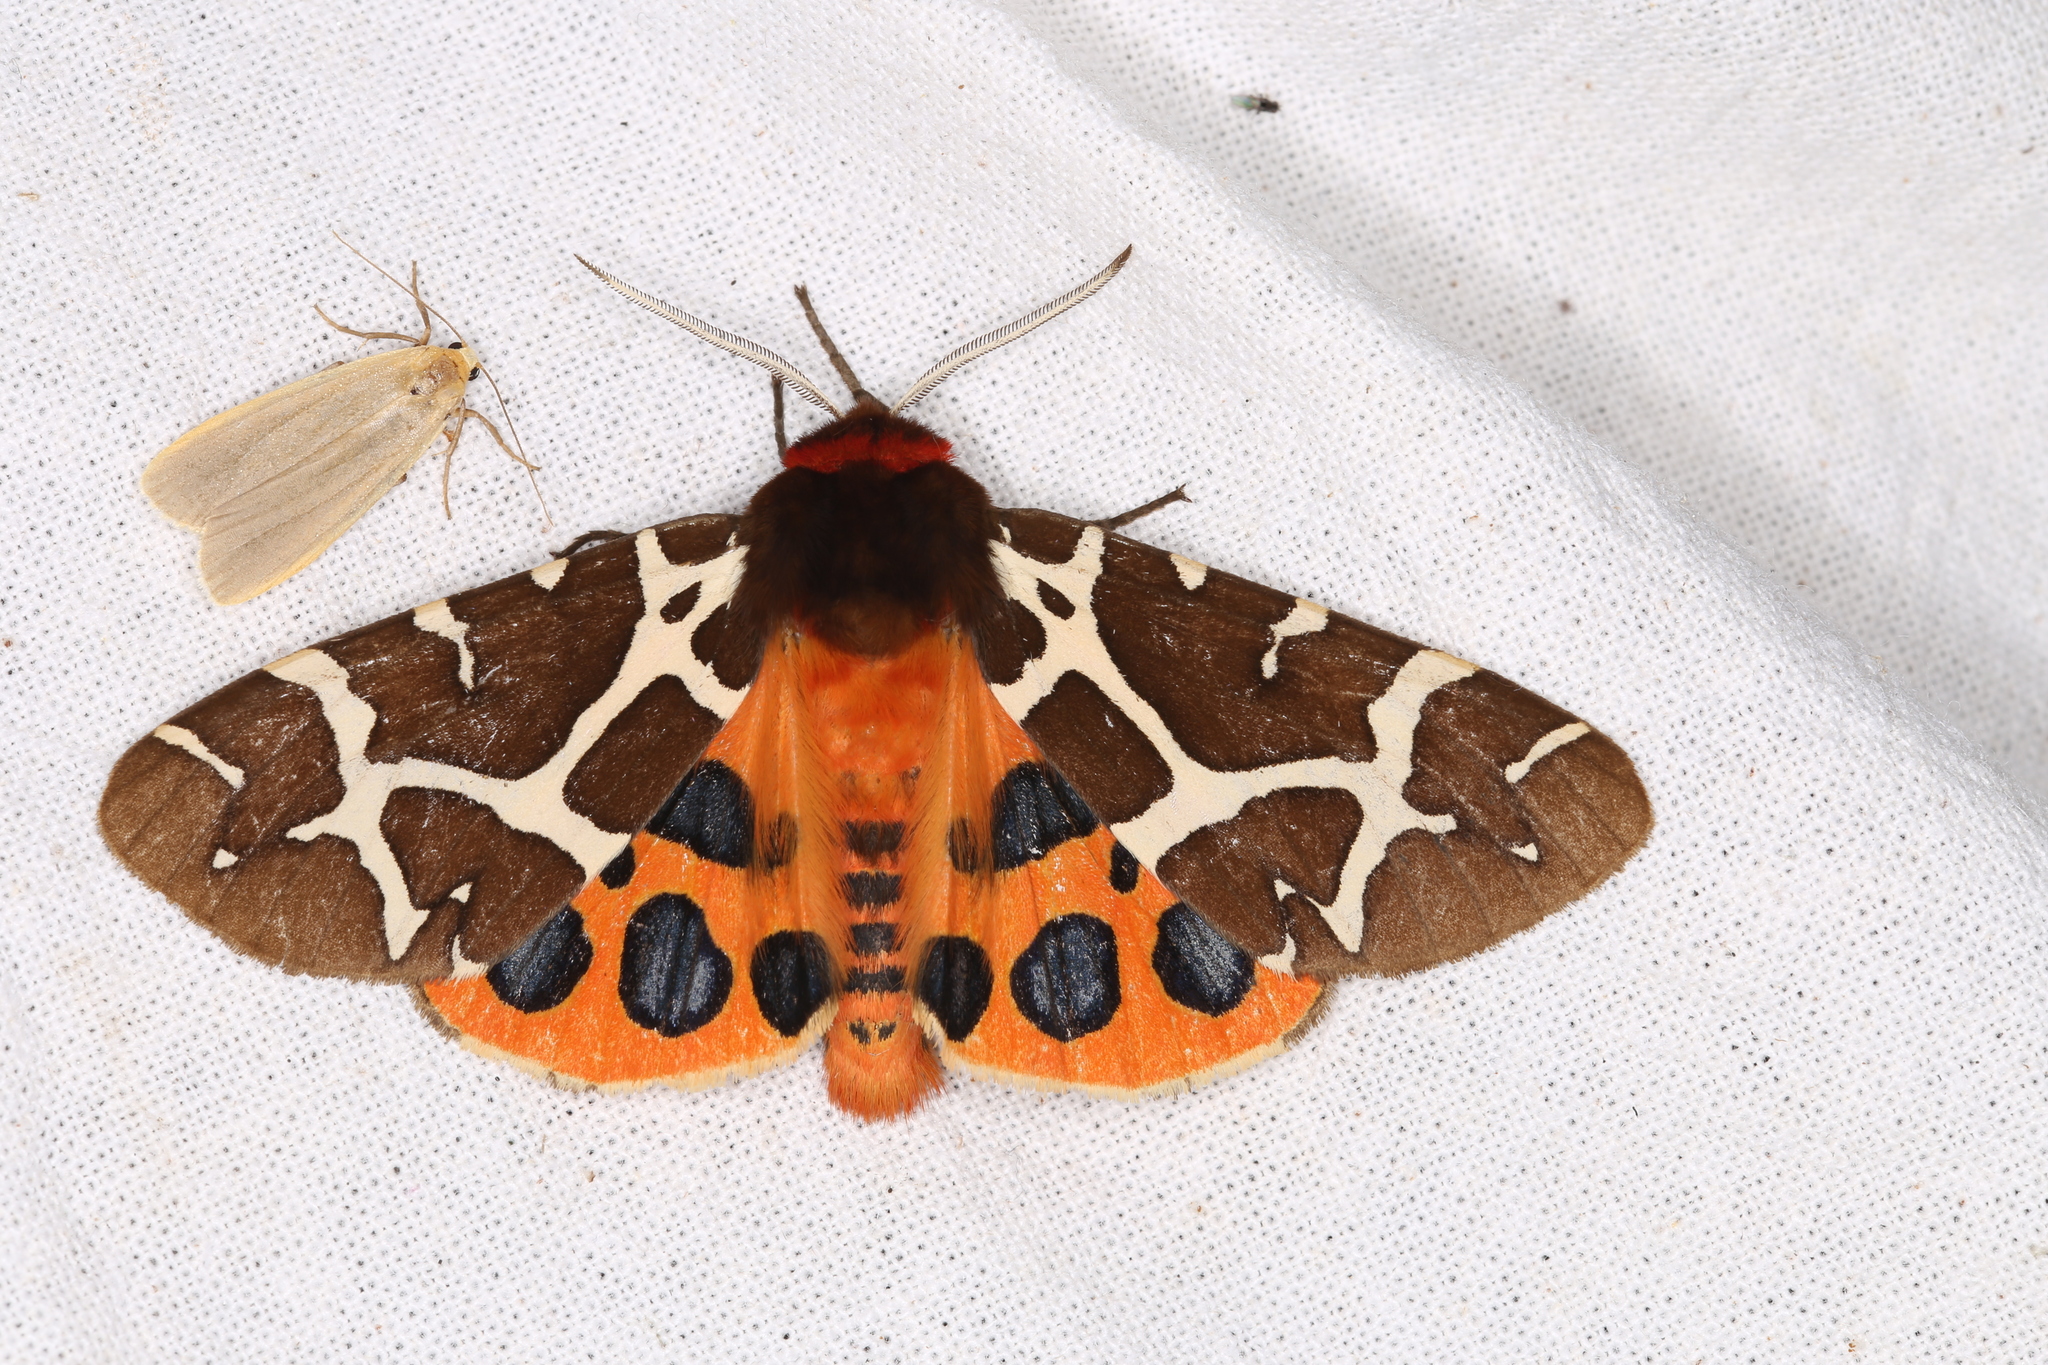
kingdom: Animalia
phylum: Arthropoda
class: Insecta
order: Lepidoptera
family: Erebidae
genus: Arctia
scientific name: Arctia caja
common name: Garden tiger
